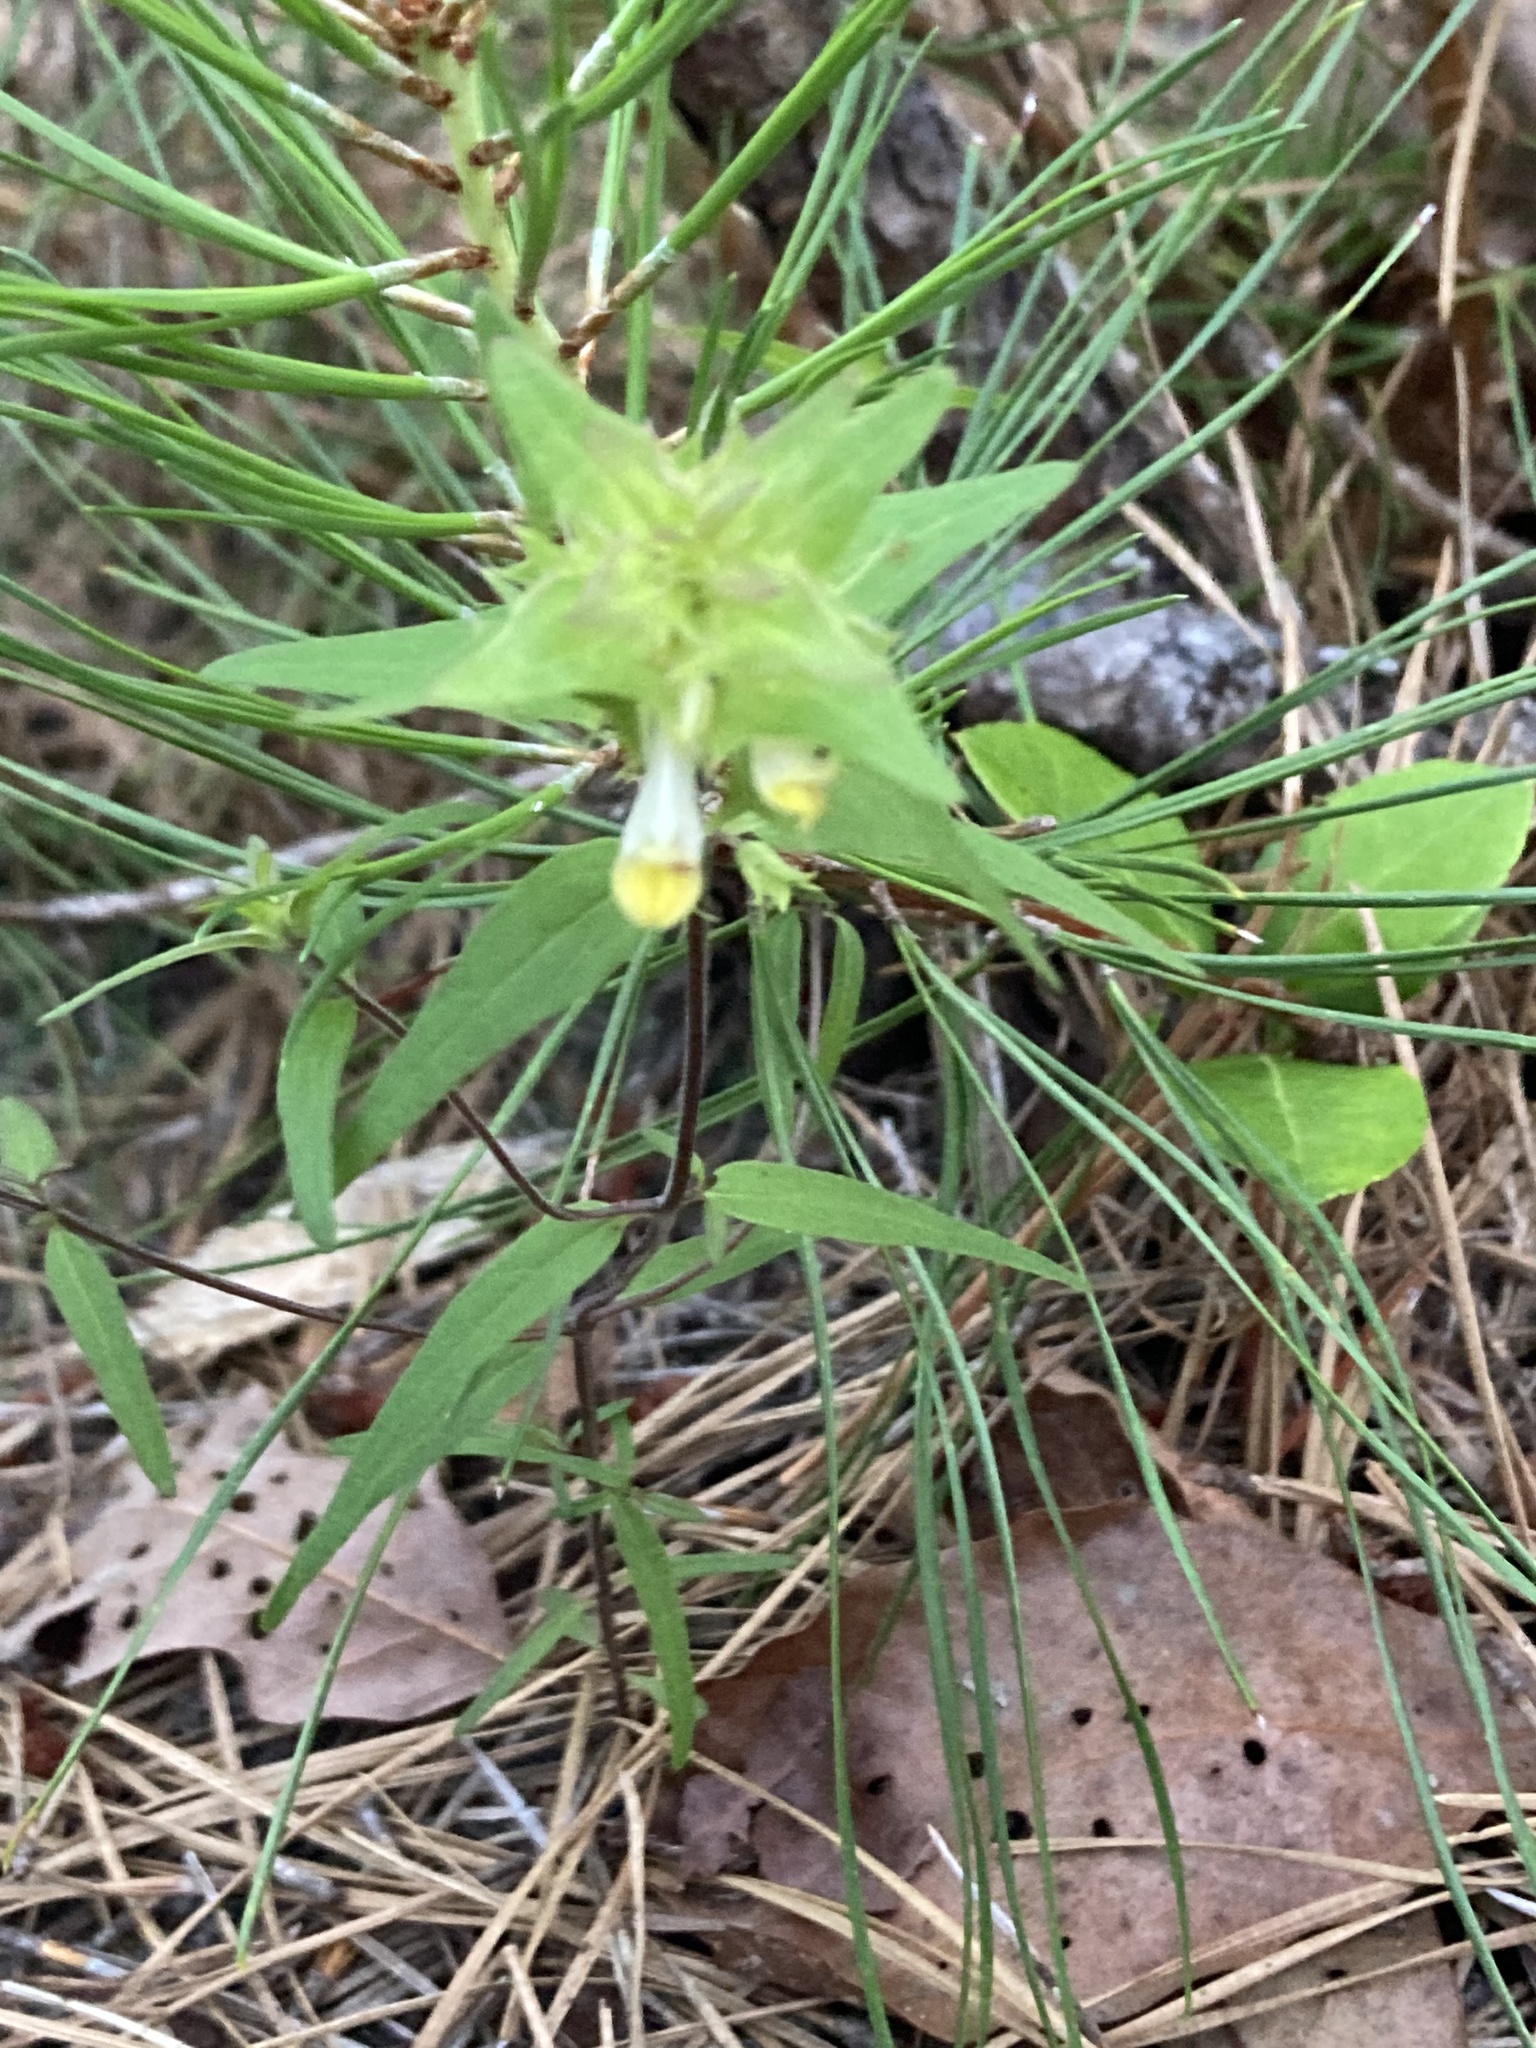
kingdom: Plantae
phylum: Tracheophyta
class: Magnoliopsida
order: Lamiales
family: Orobanchaceae
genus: Melampyrum
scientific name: Melampyrum lineare
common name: American cow-wheat
